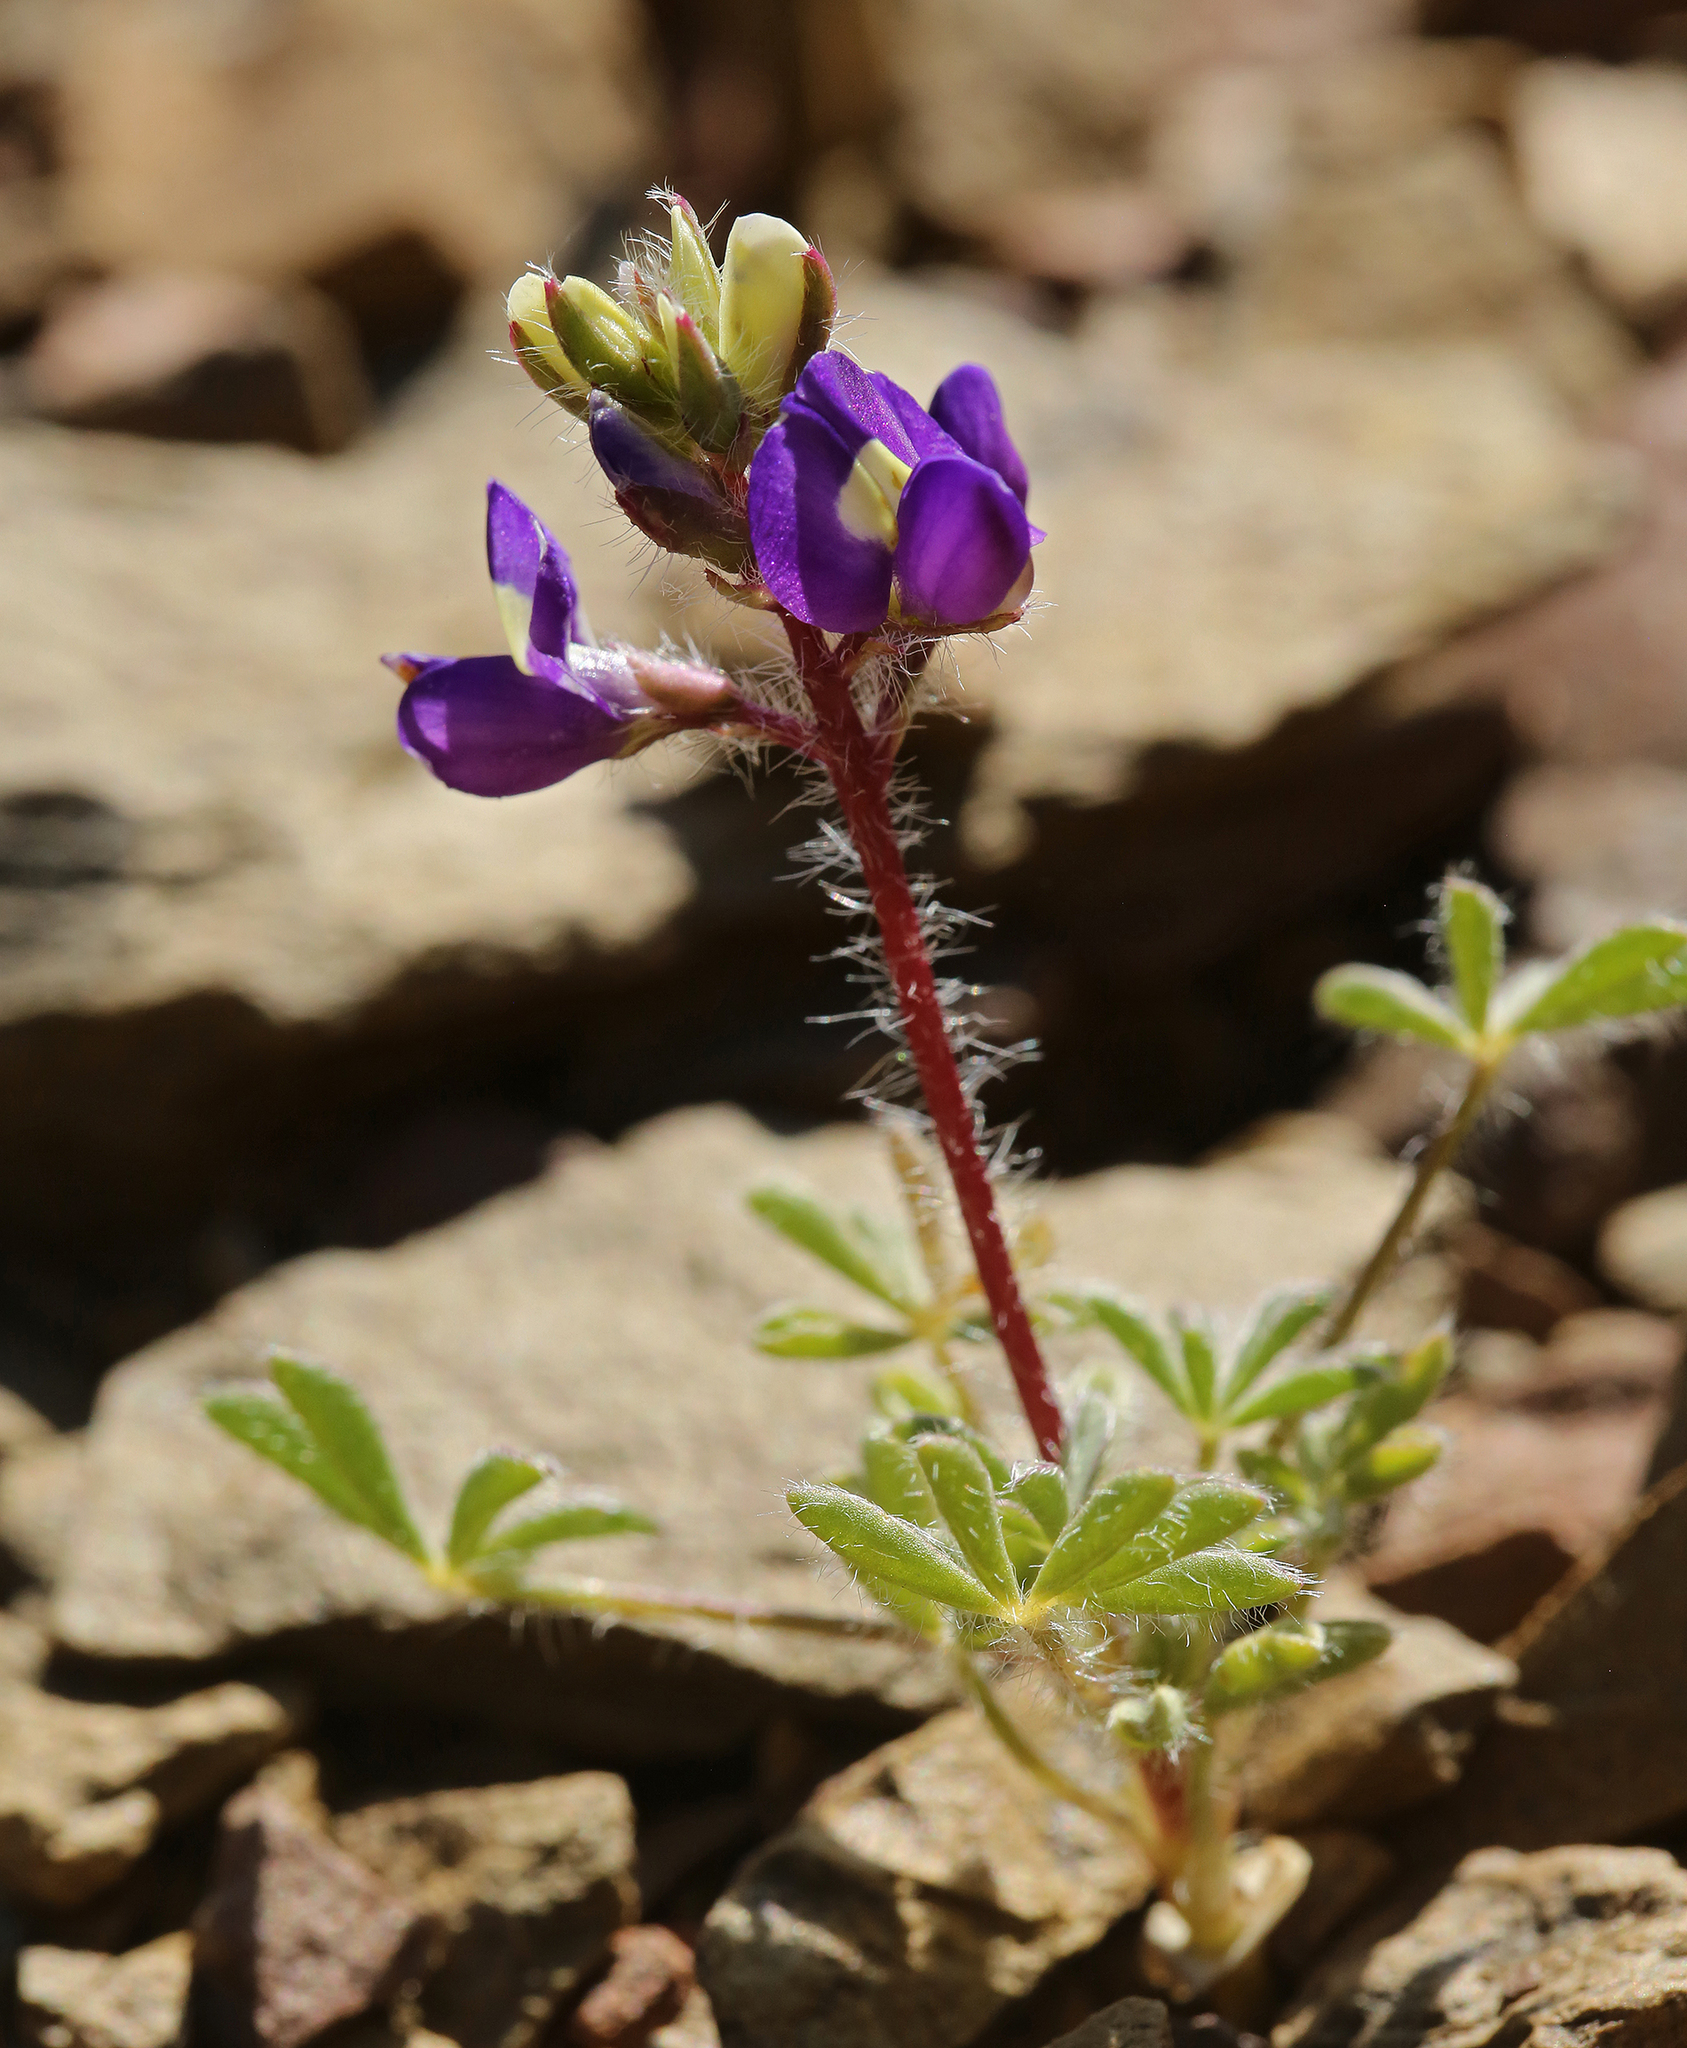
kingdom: Plantae
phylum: Tracheophyta
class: Magnoliopsida
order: Fabales
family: Fabaceae
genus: Lupinus
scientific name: Lupinus flavoculatus
